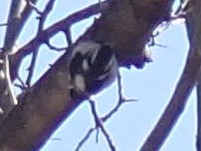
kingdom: Animalia
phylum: Chordata
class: Aves
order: Piciformes
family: Picidae
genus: Dryobates
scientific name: Dryobates pubescens
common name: Downy woodpecker
